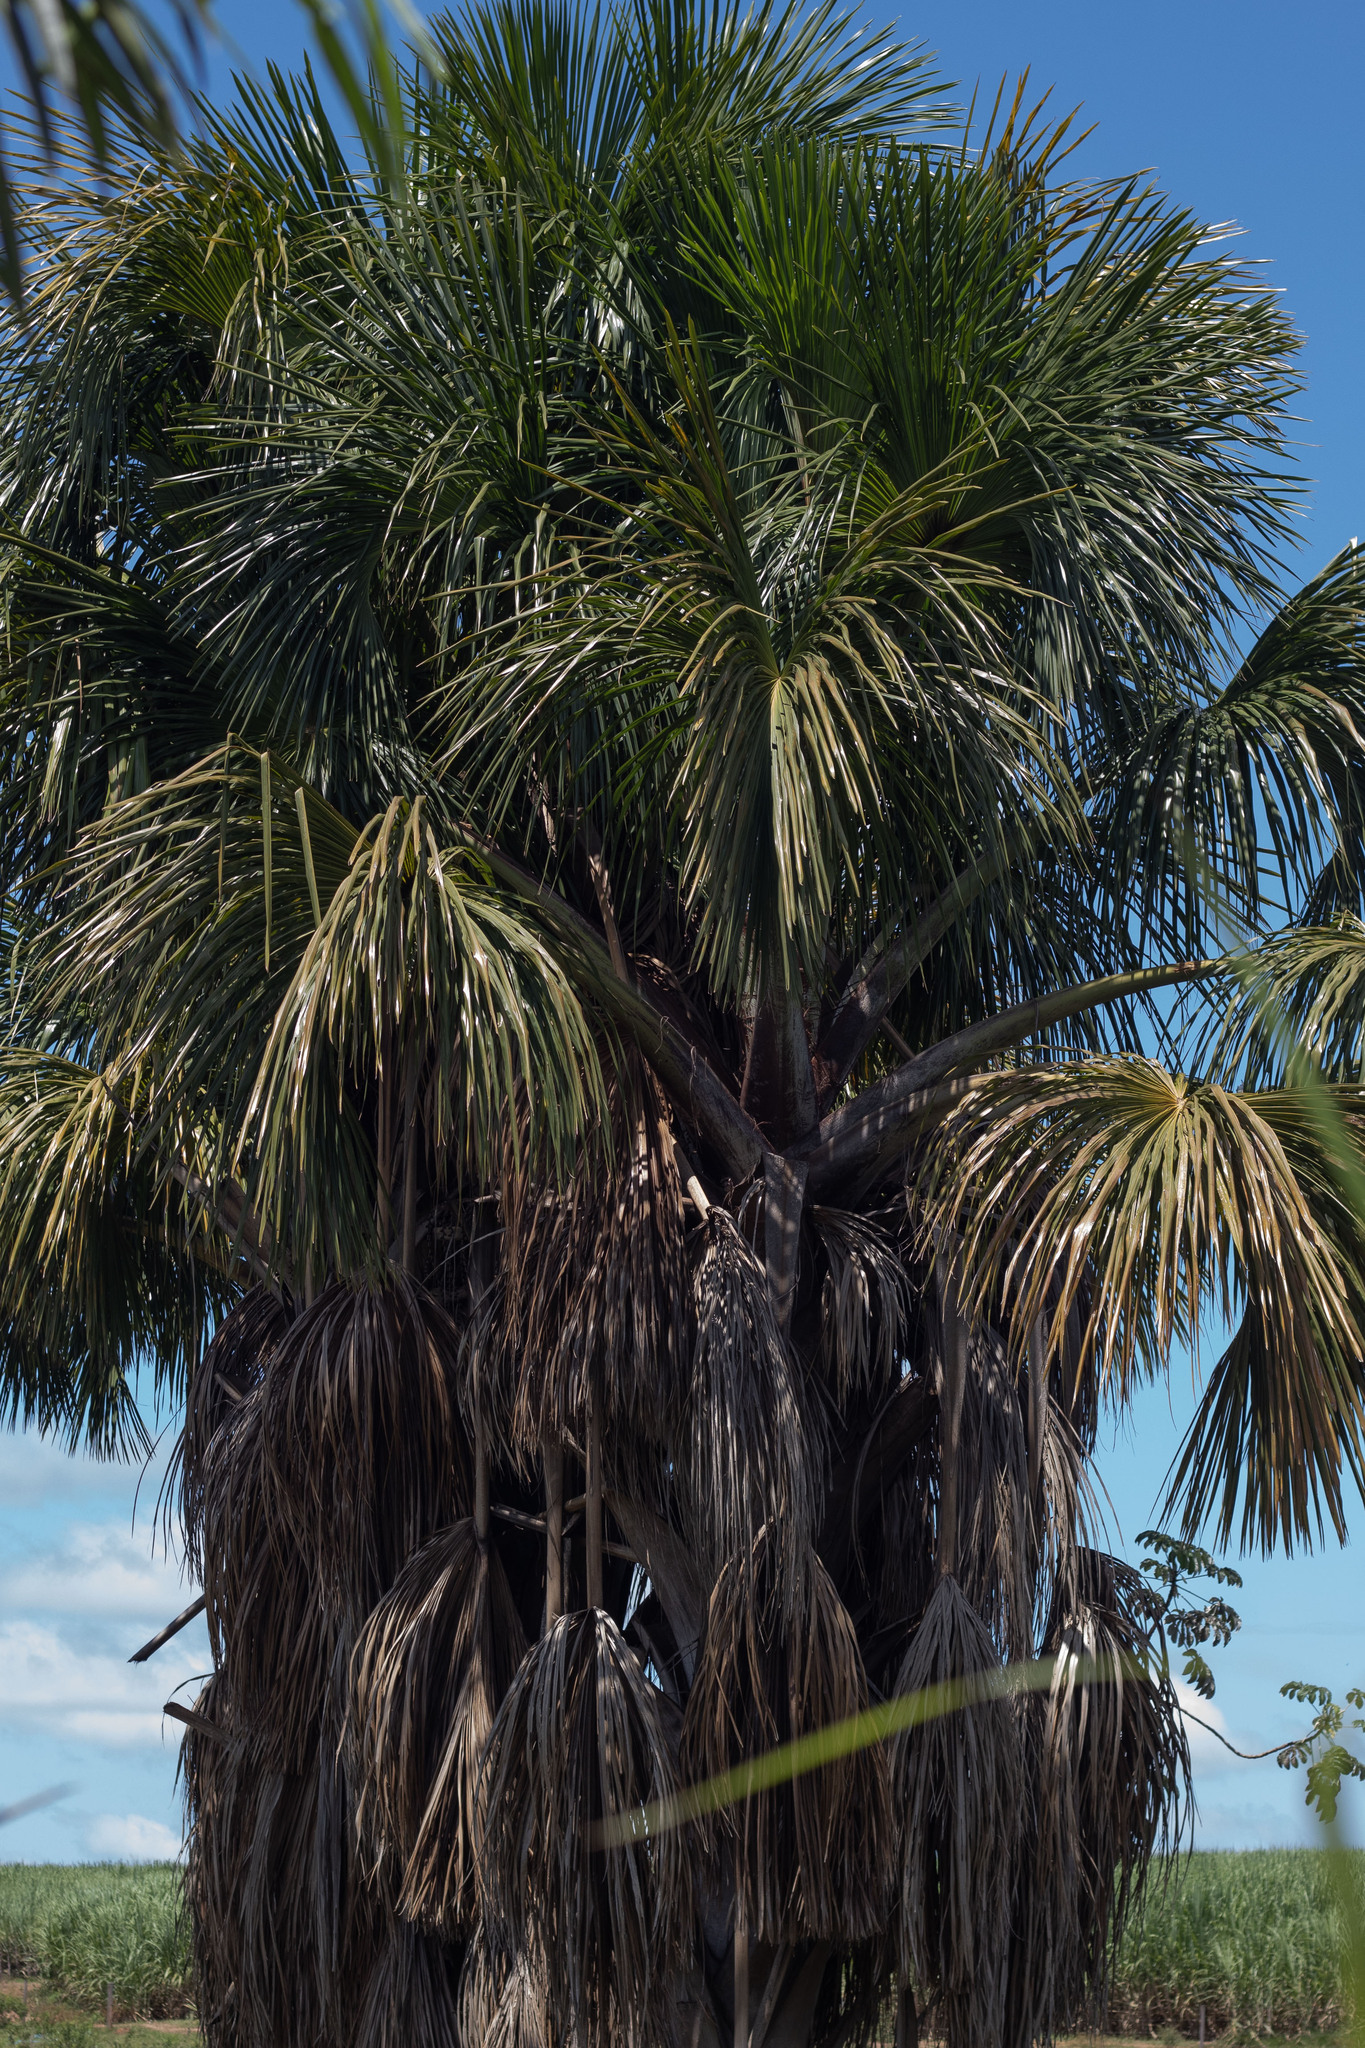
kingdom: Plantae
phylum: Tracheophyta
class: Liliopsida
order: Arecales
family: Arecaceae
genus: Mauritia
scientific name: Mauritia flexuosa
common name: Tree-of-life
